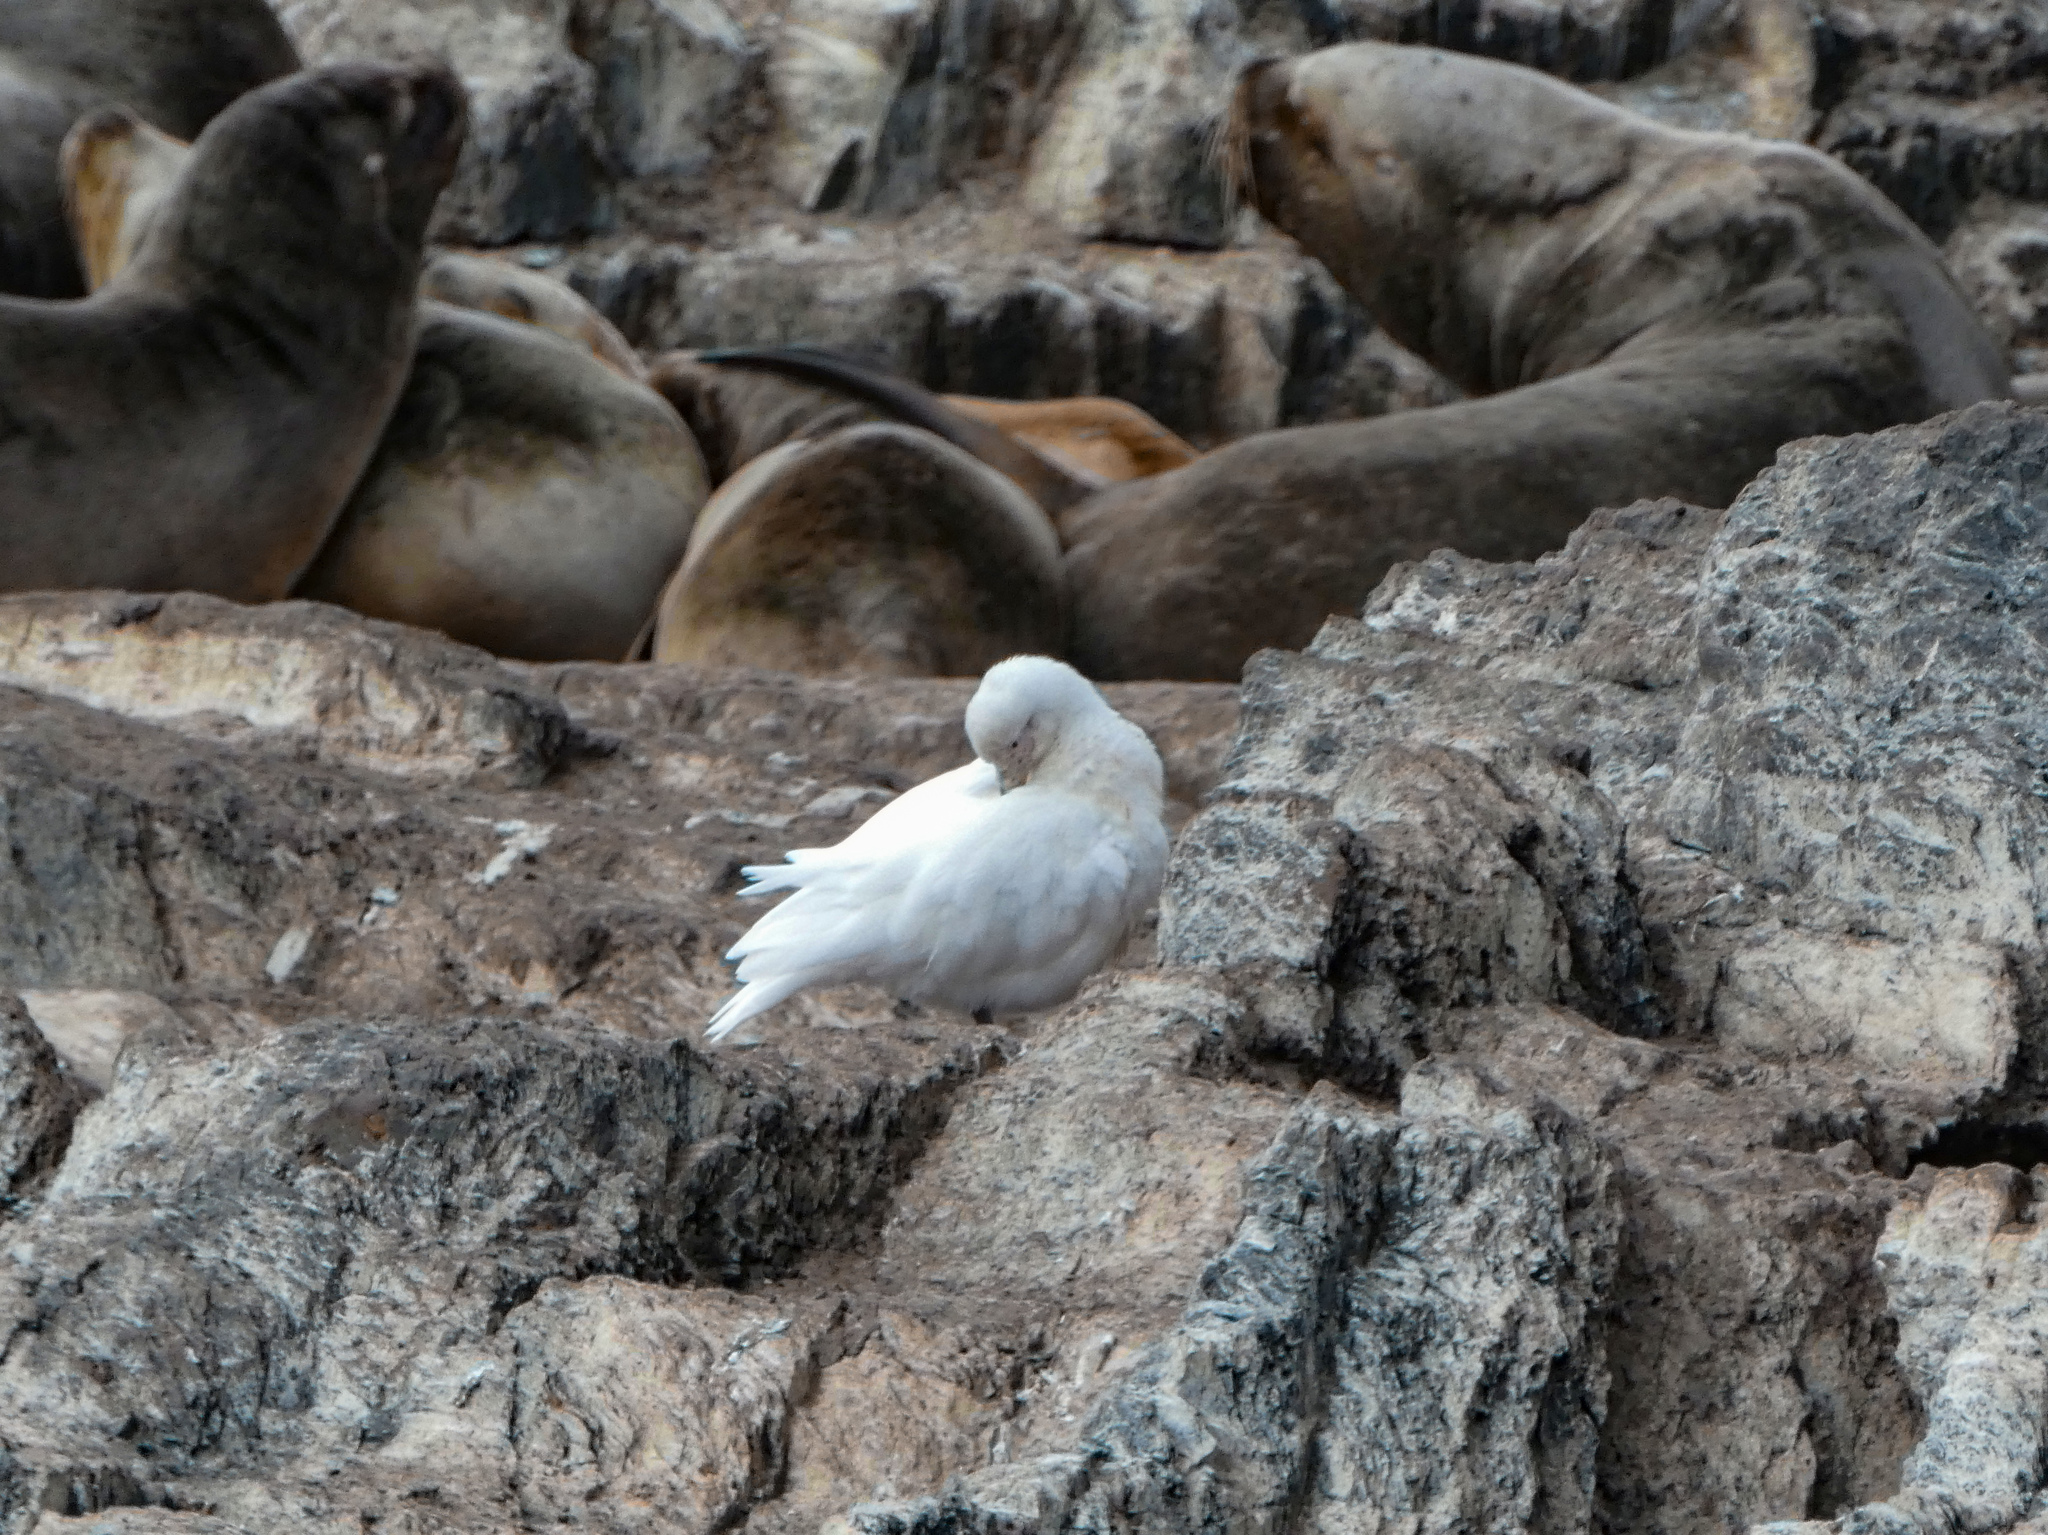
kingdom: Animalia
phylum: Chordata
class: Aves
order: Charadriiformes
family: Chionidae
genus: Chionis
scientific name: Chionis albus
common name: Snowy sheathbill
